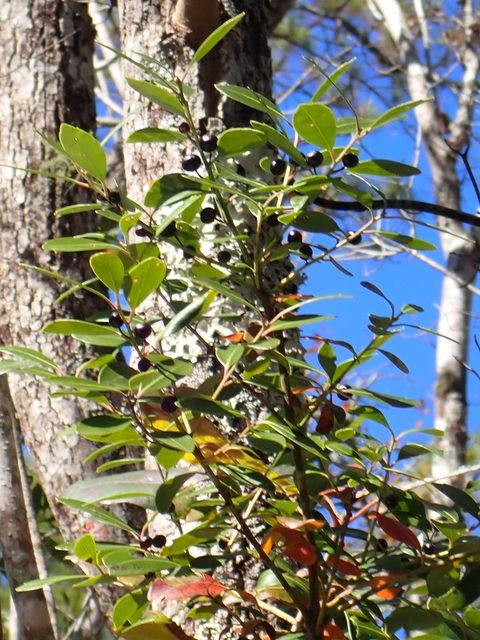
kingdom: Plantae
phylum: Tracheophyta
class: Magnoliopsida
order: Aquifoliales
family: Aquifoliaceae
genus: Ilex
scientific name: Ilex glabra
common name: Bitter gallberry
